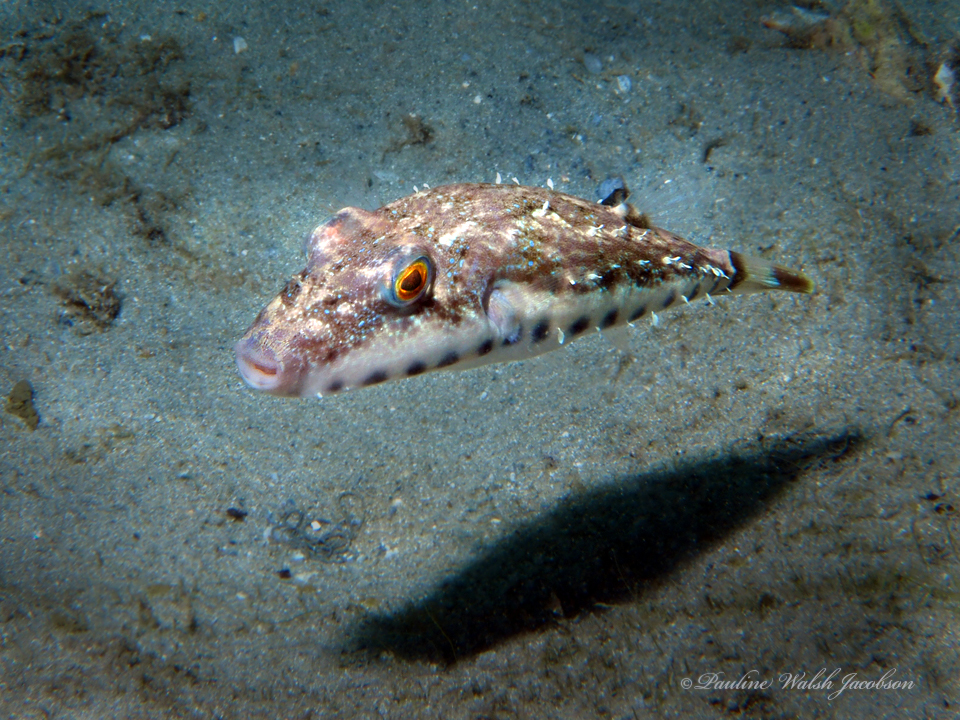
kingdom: Animalia
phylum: Chordata
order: Tetraodontiformes
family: Tetraodontidae
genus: Sphoeroides
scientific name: Sphoeroides spengleri
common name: Bandtail puffer
